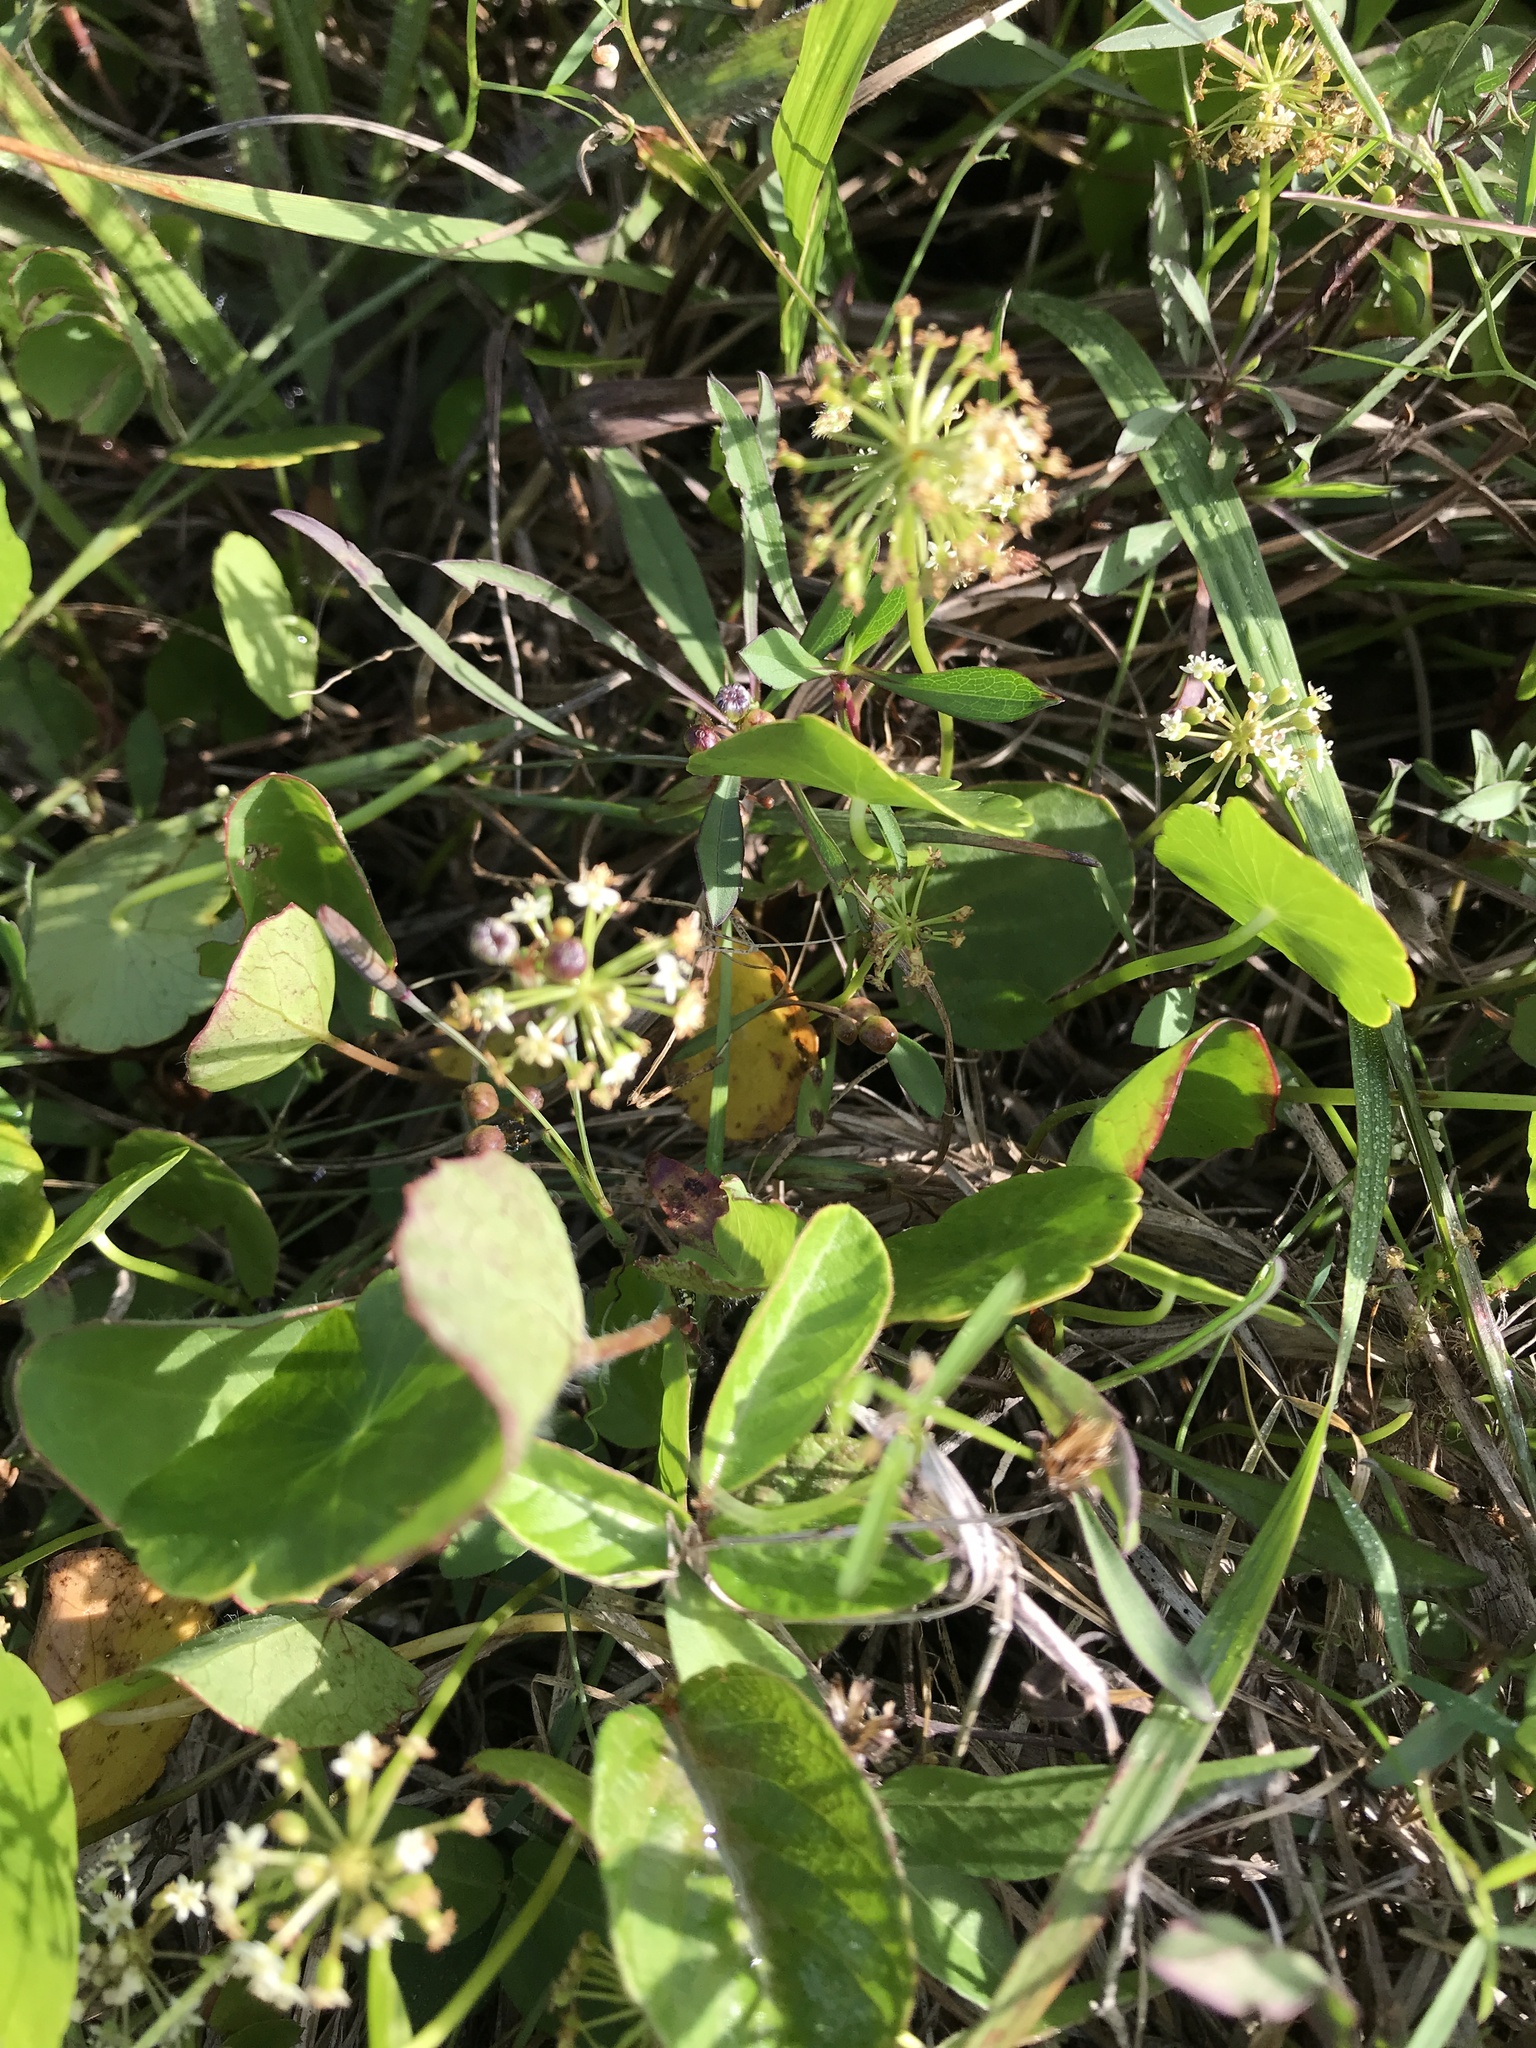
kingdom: Plantae
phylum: Tracheophyta
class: Magnoliopsida
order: Apiales
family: Araliaceae
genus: Hydrocotyle
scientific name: Hydrocotyle umbellata
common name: Water pennywort
